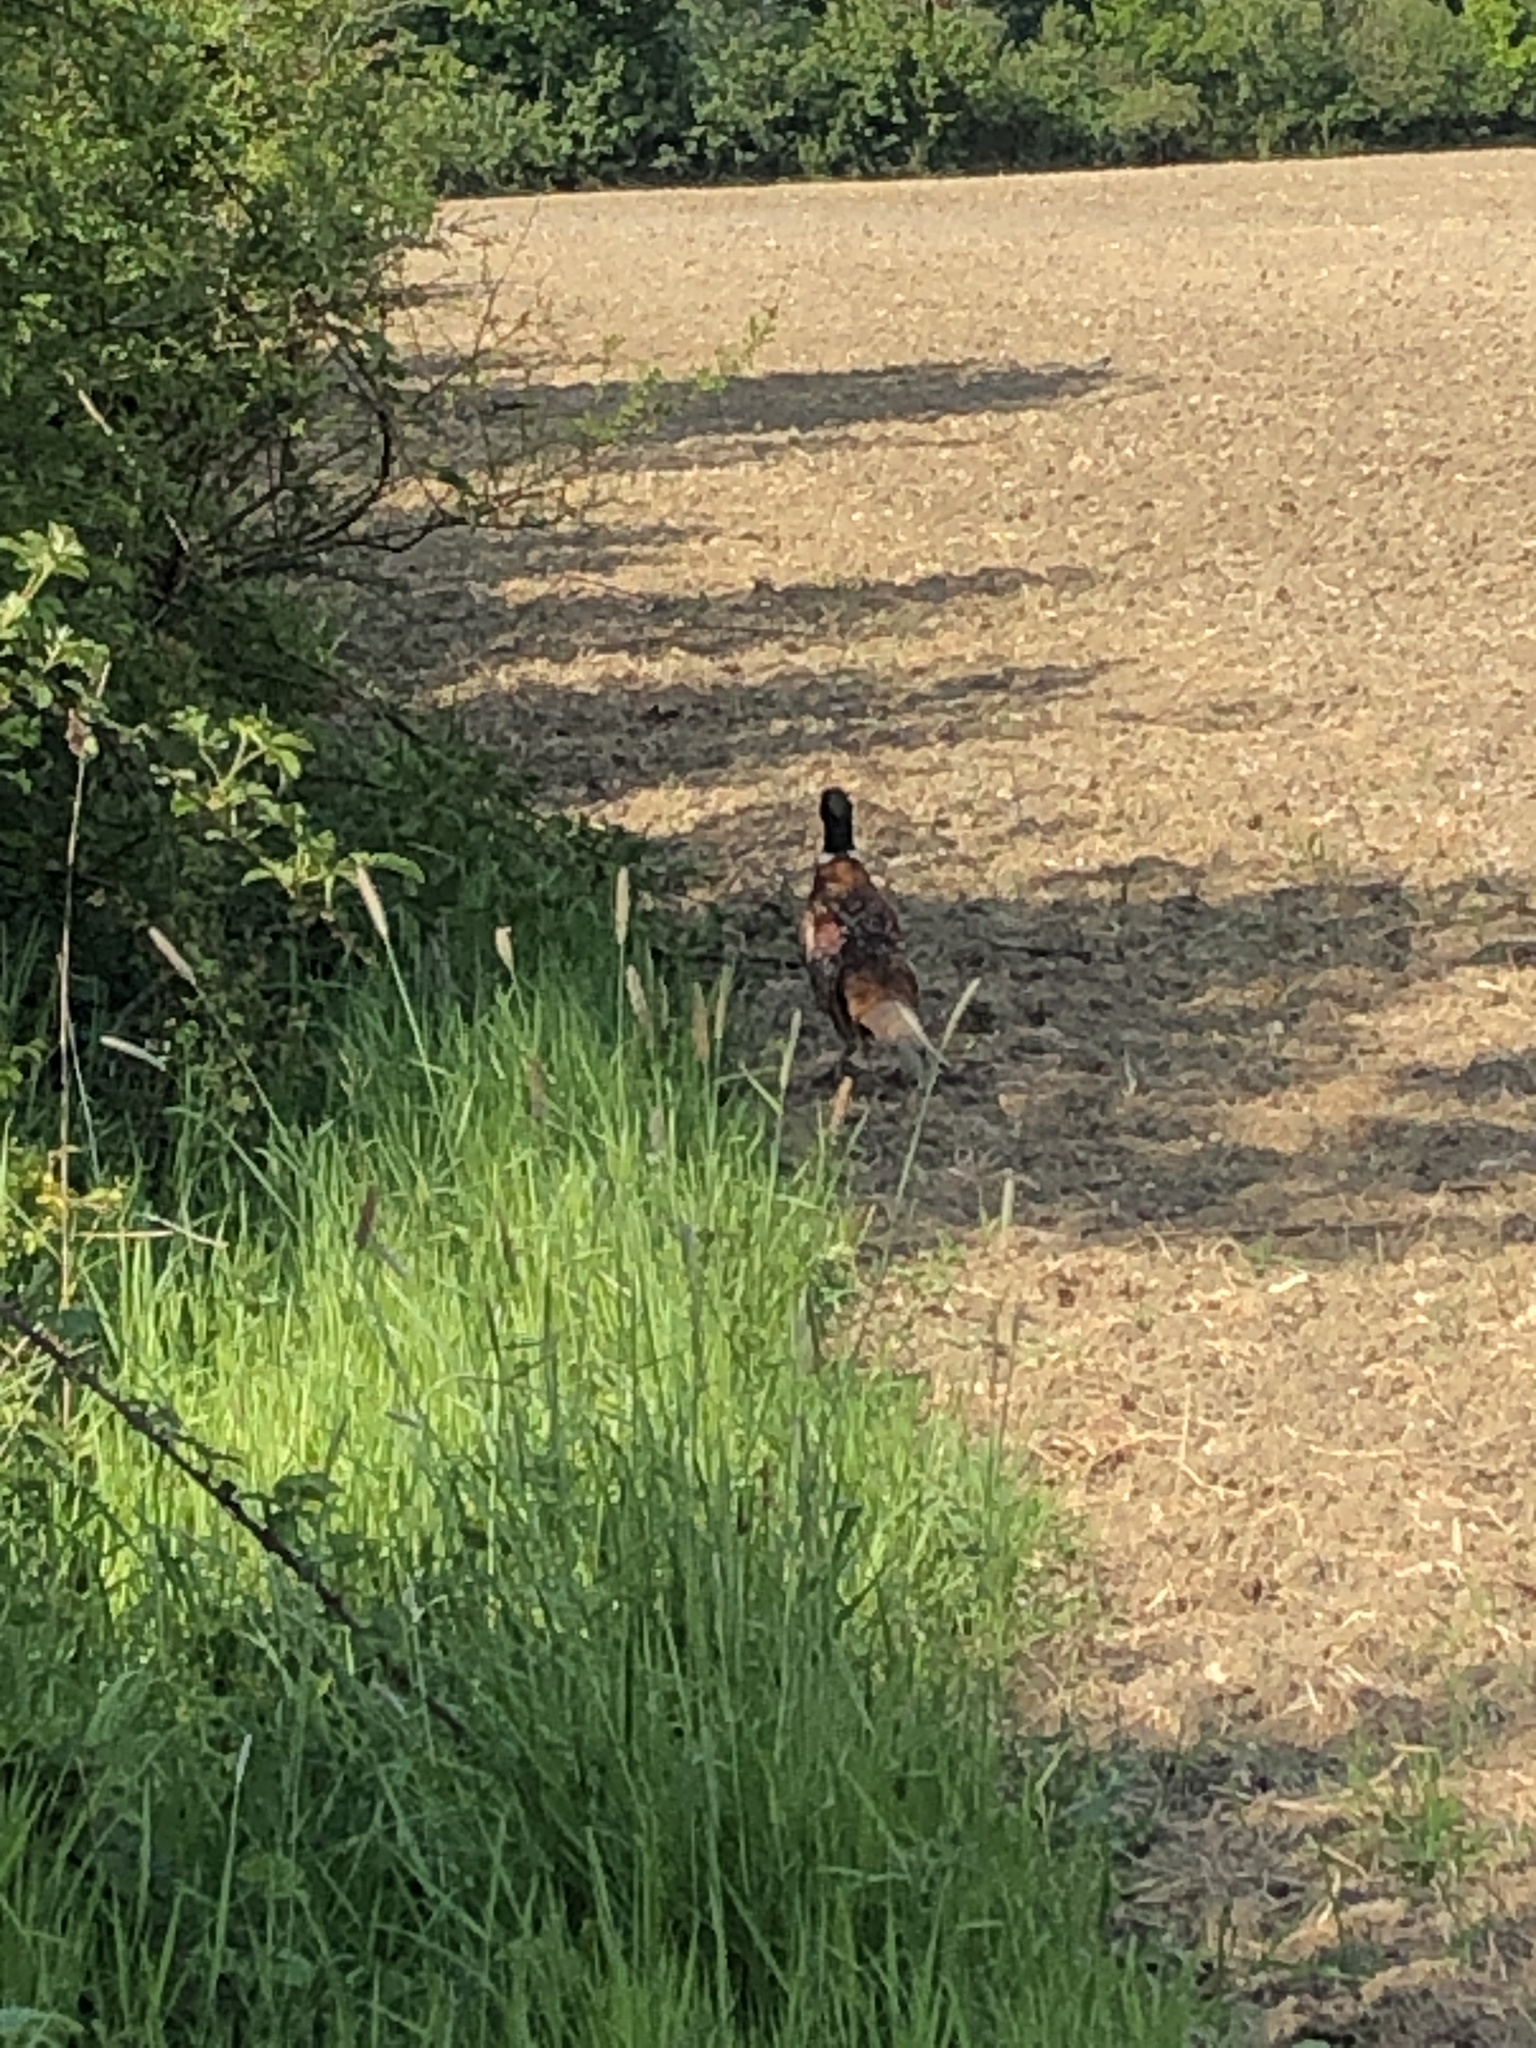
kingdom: Animalia
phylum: Chordata
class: Aves
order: Galliformes
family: Phasianidae
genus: Phasianus
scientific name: Phasianus colchicus
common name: Common pheasant
